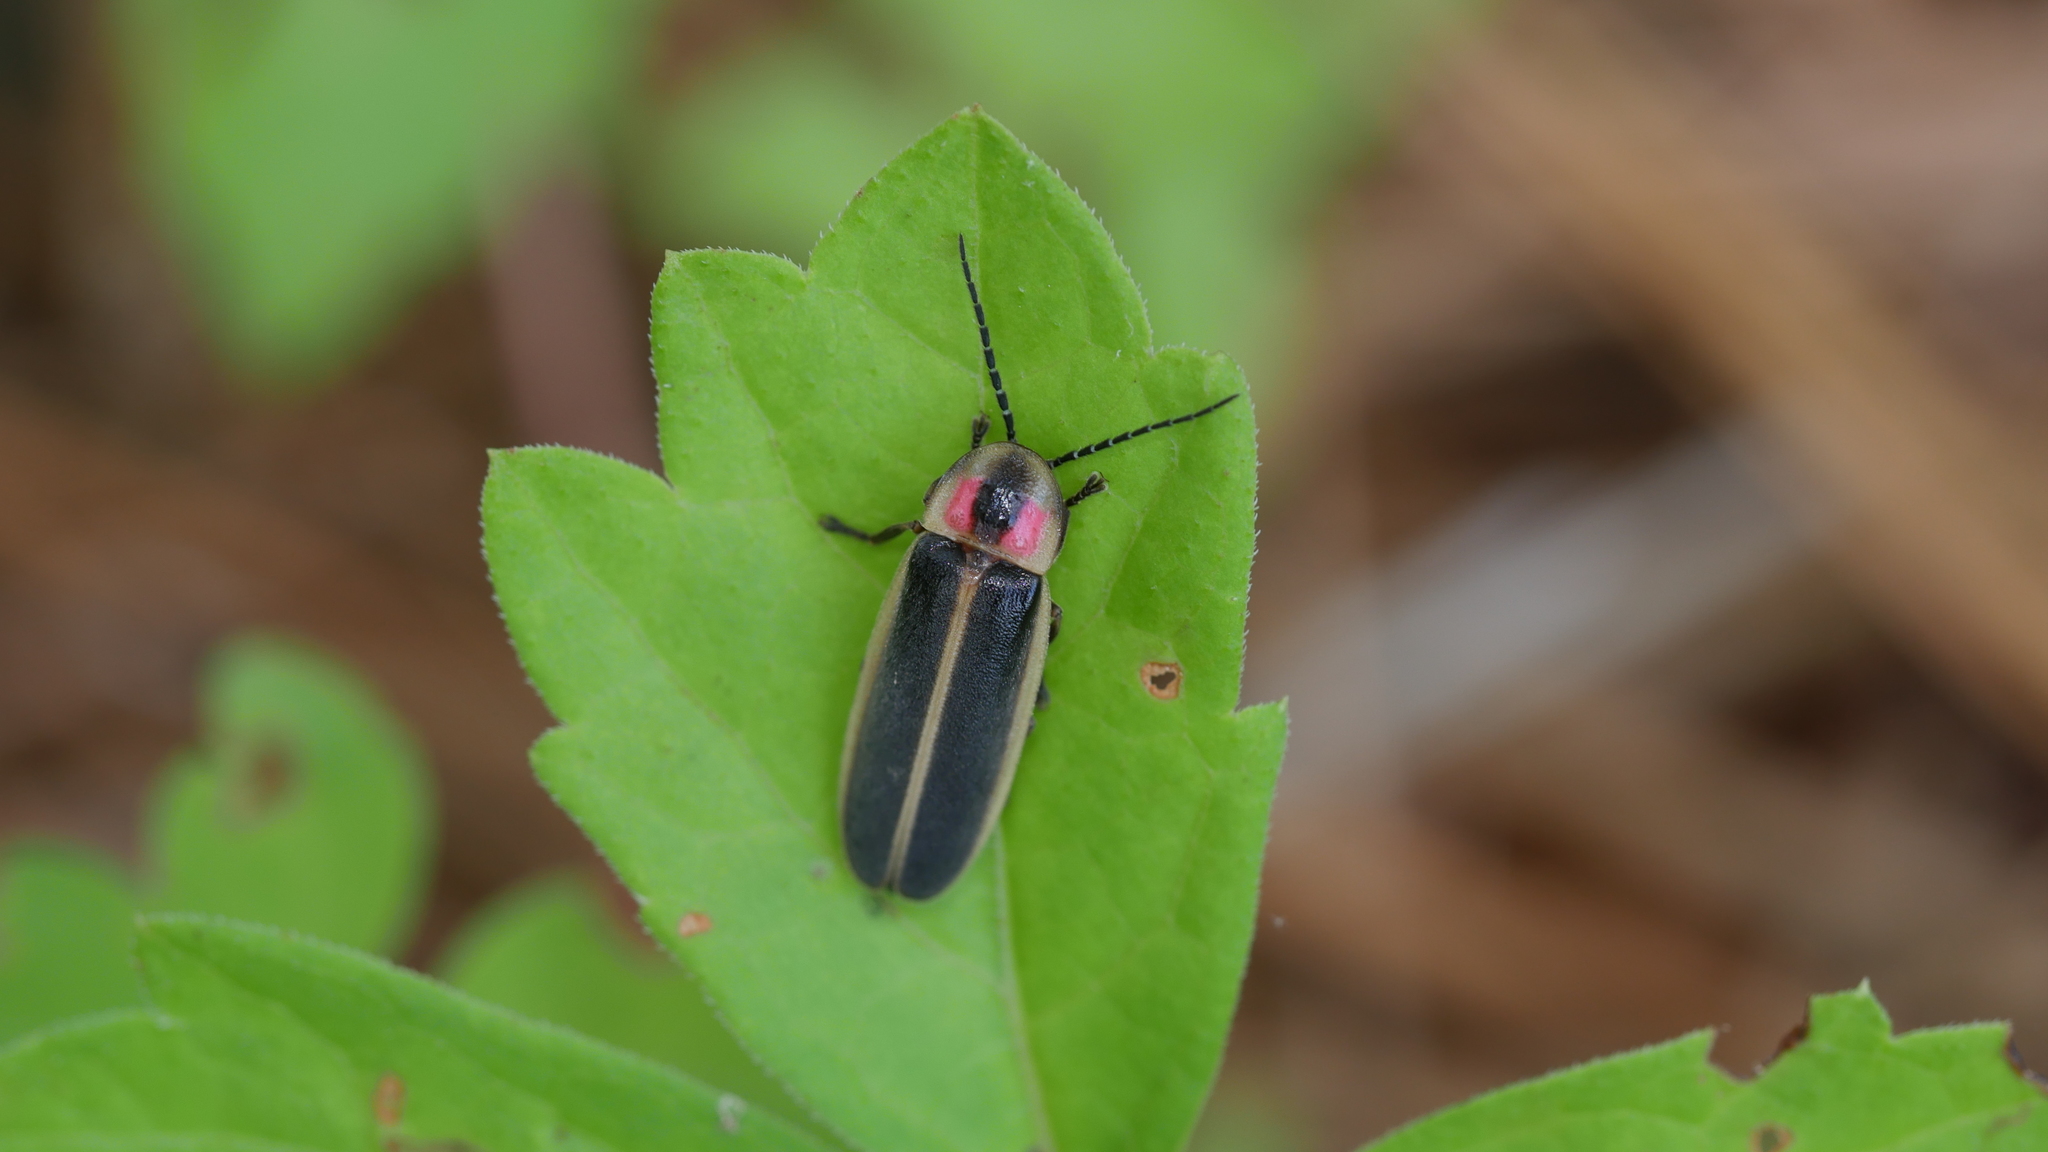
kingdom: Animalia
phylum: Arthropoda
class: Insecta
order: Coleoptera
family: Lampyridae
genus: Photinus
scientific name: Photinus pyralis
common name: Big dipper firefly
